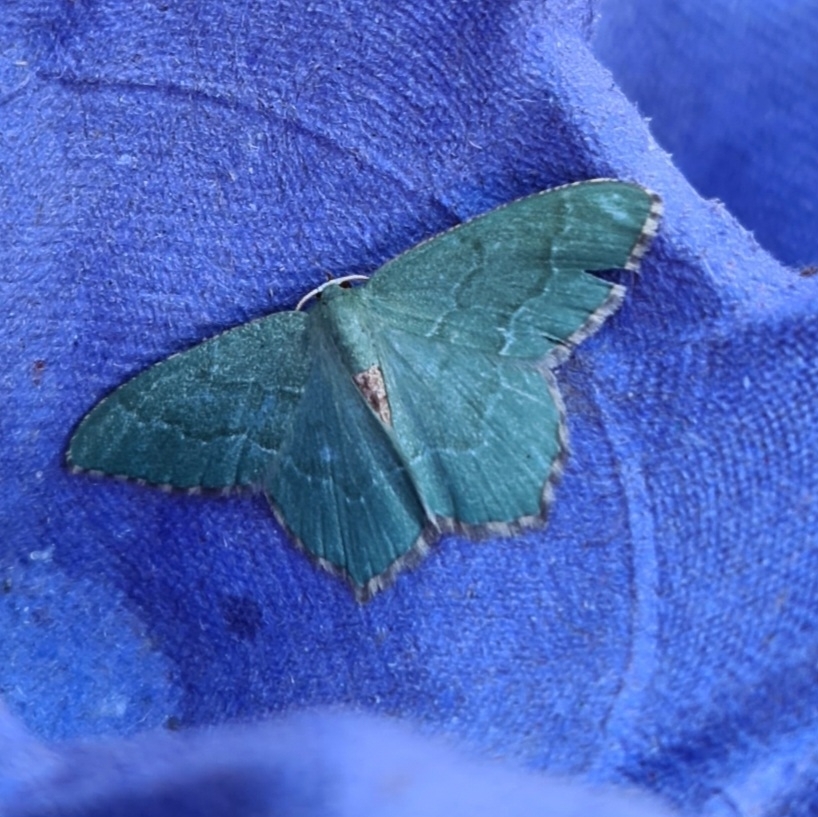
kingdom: Animalia
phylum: Arthropoda
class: Insecta
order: Lepidoptera
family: Geometridae
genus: Hemithea
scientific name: Hemithea aestivaria
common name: Common emerald
